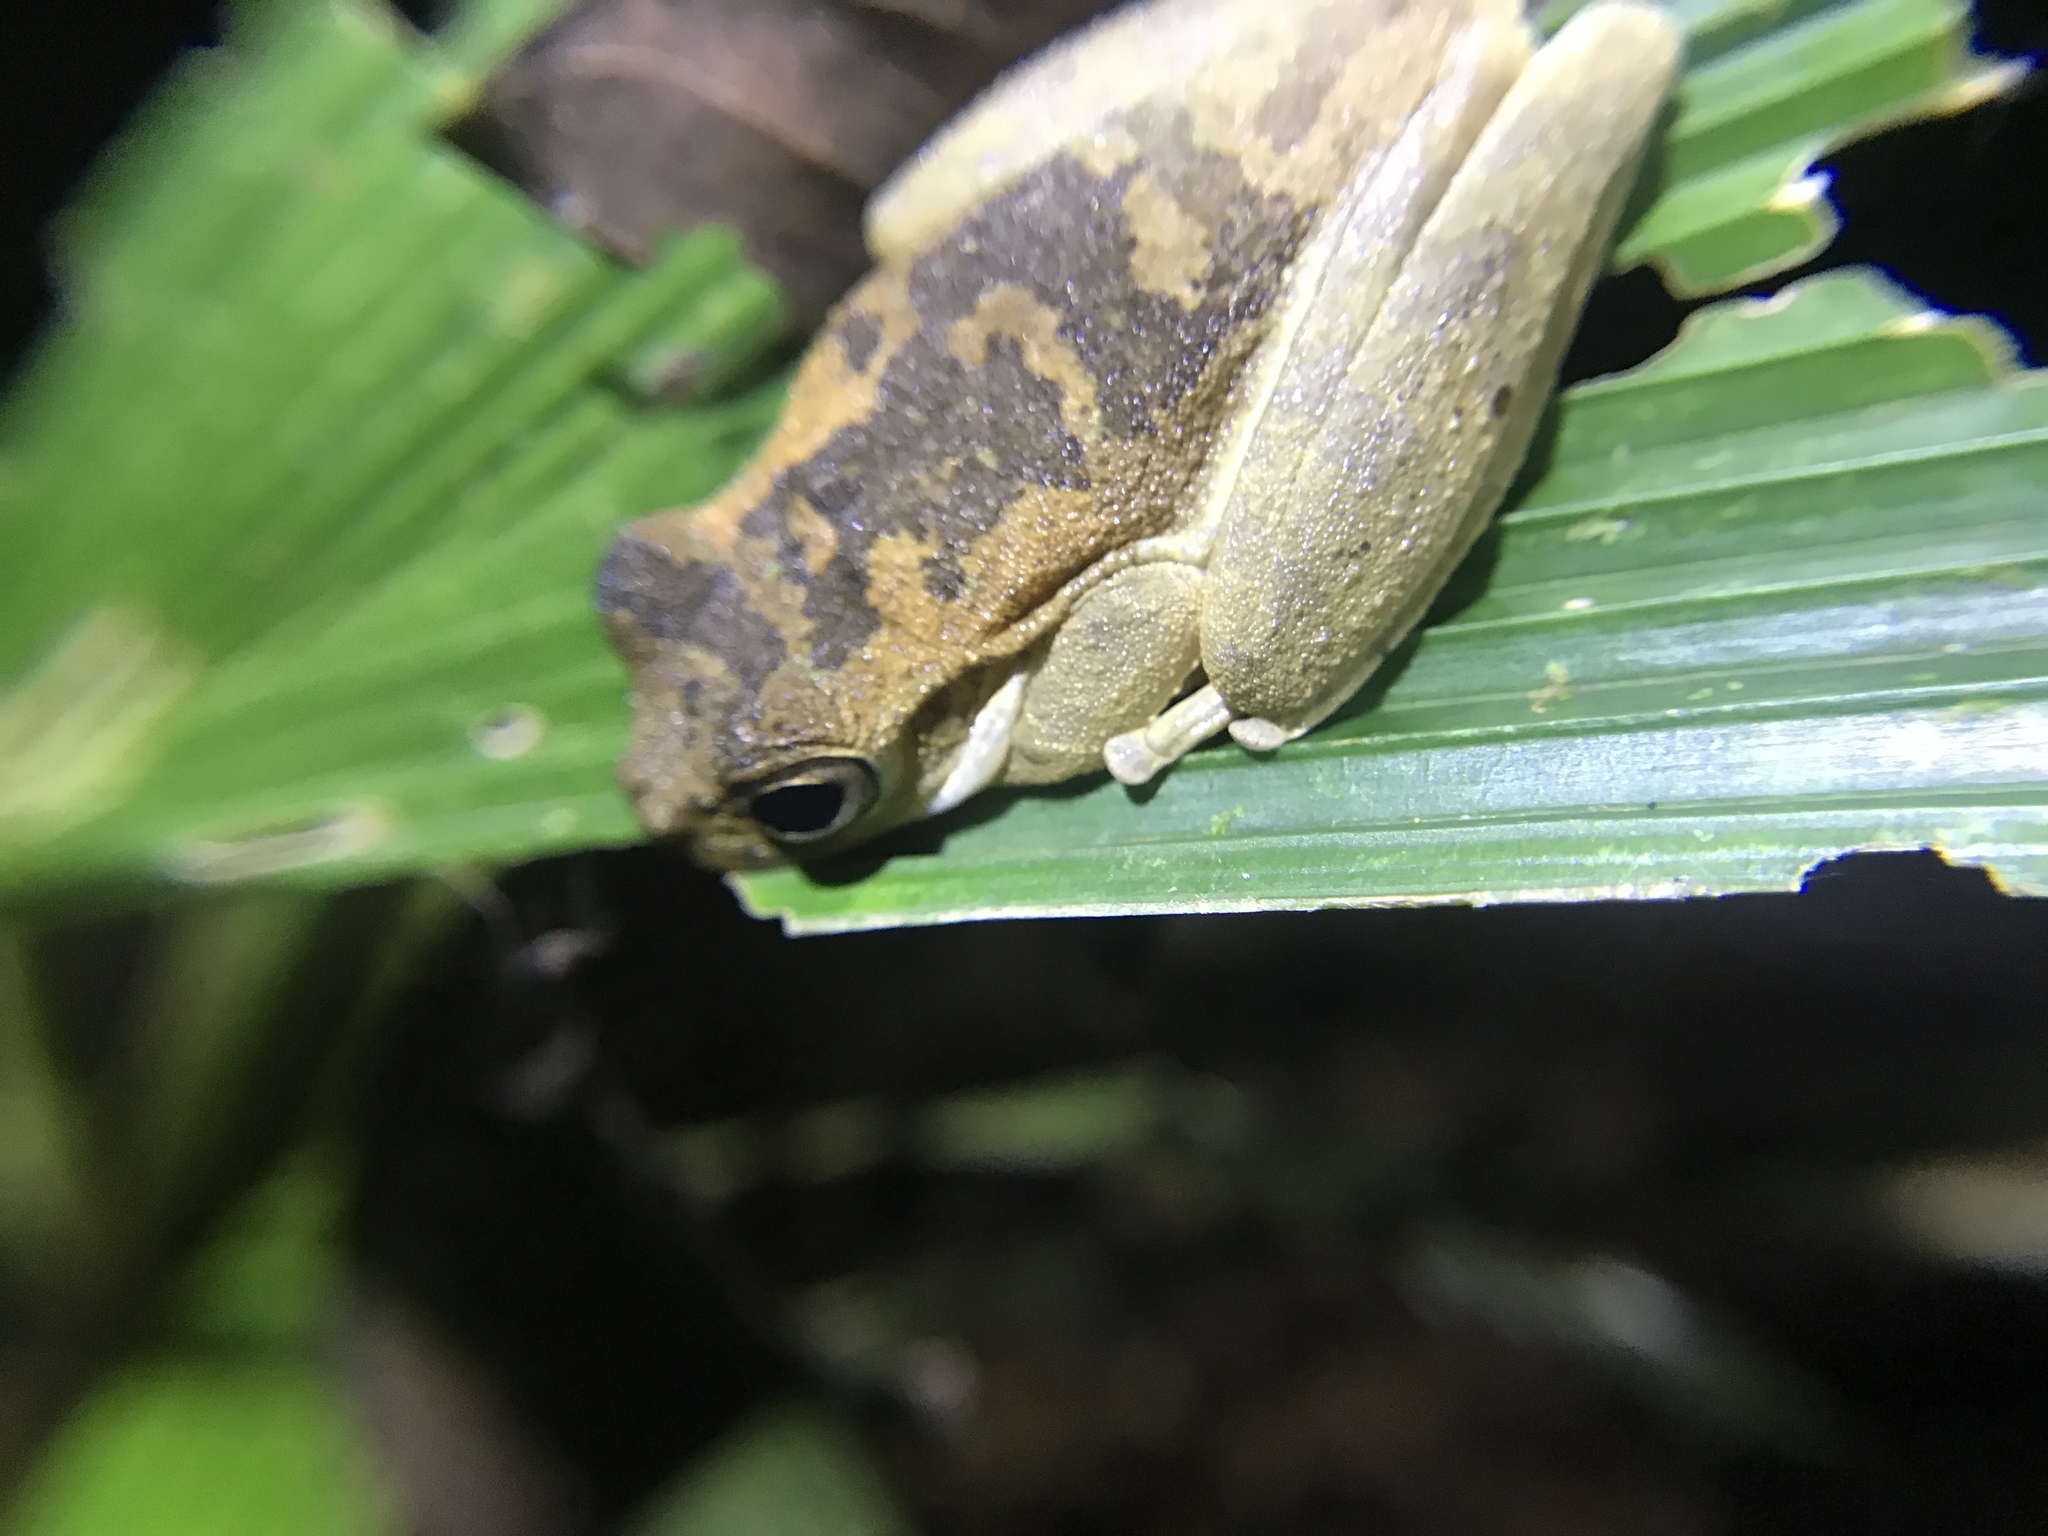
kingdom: Animalia
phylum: Chordata
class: Amphibia
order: Anura
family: Hylidae
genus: Smilisca
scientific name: Smilisca sila
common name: Panama cross-banded treefrog
